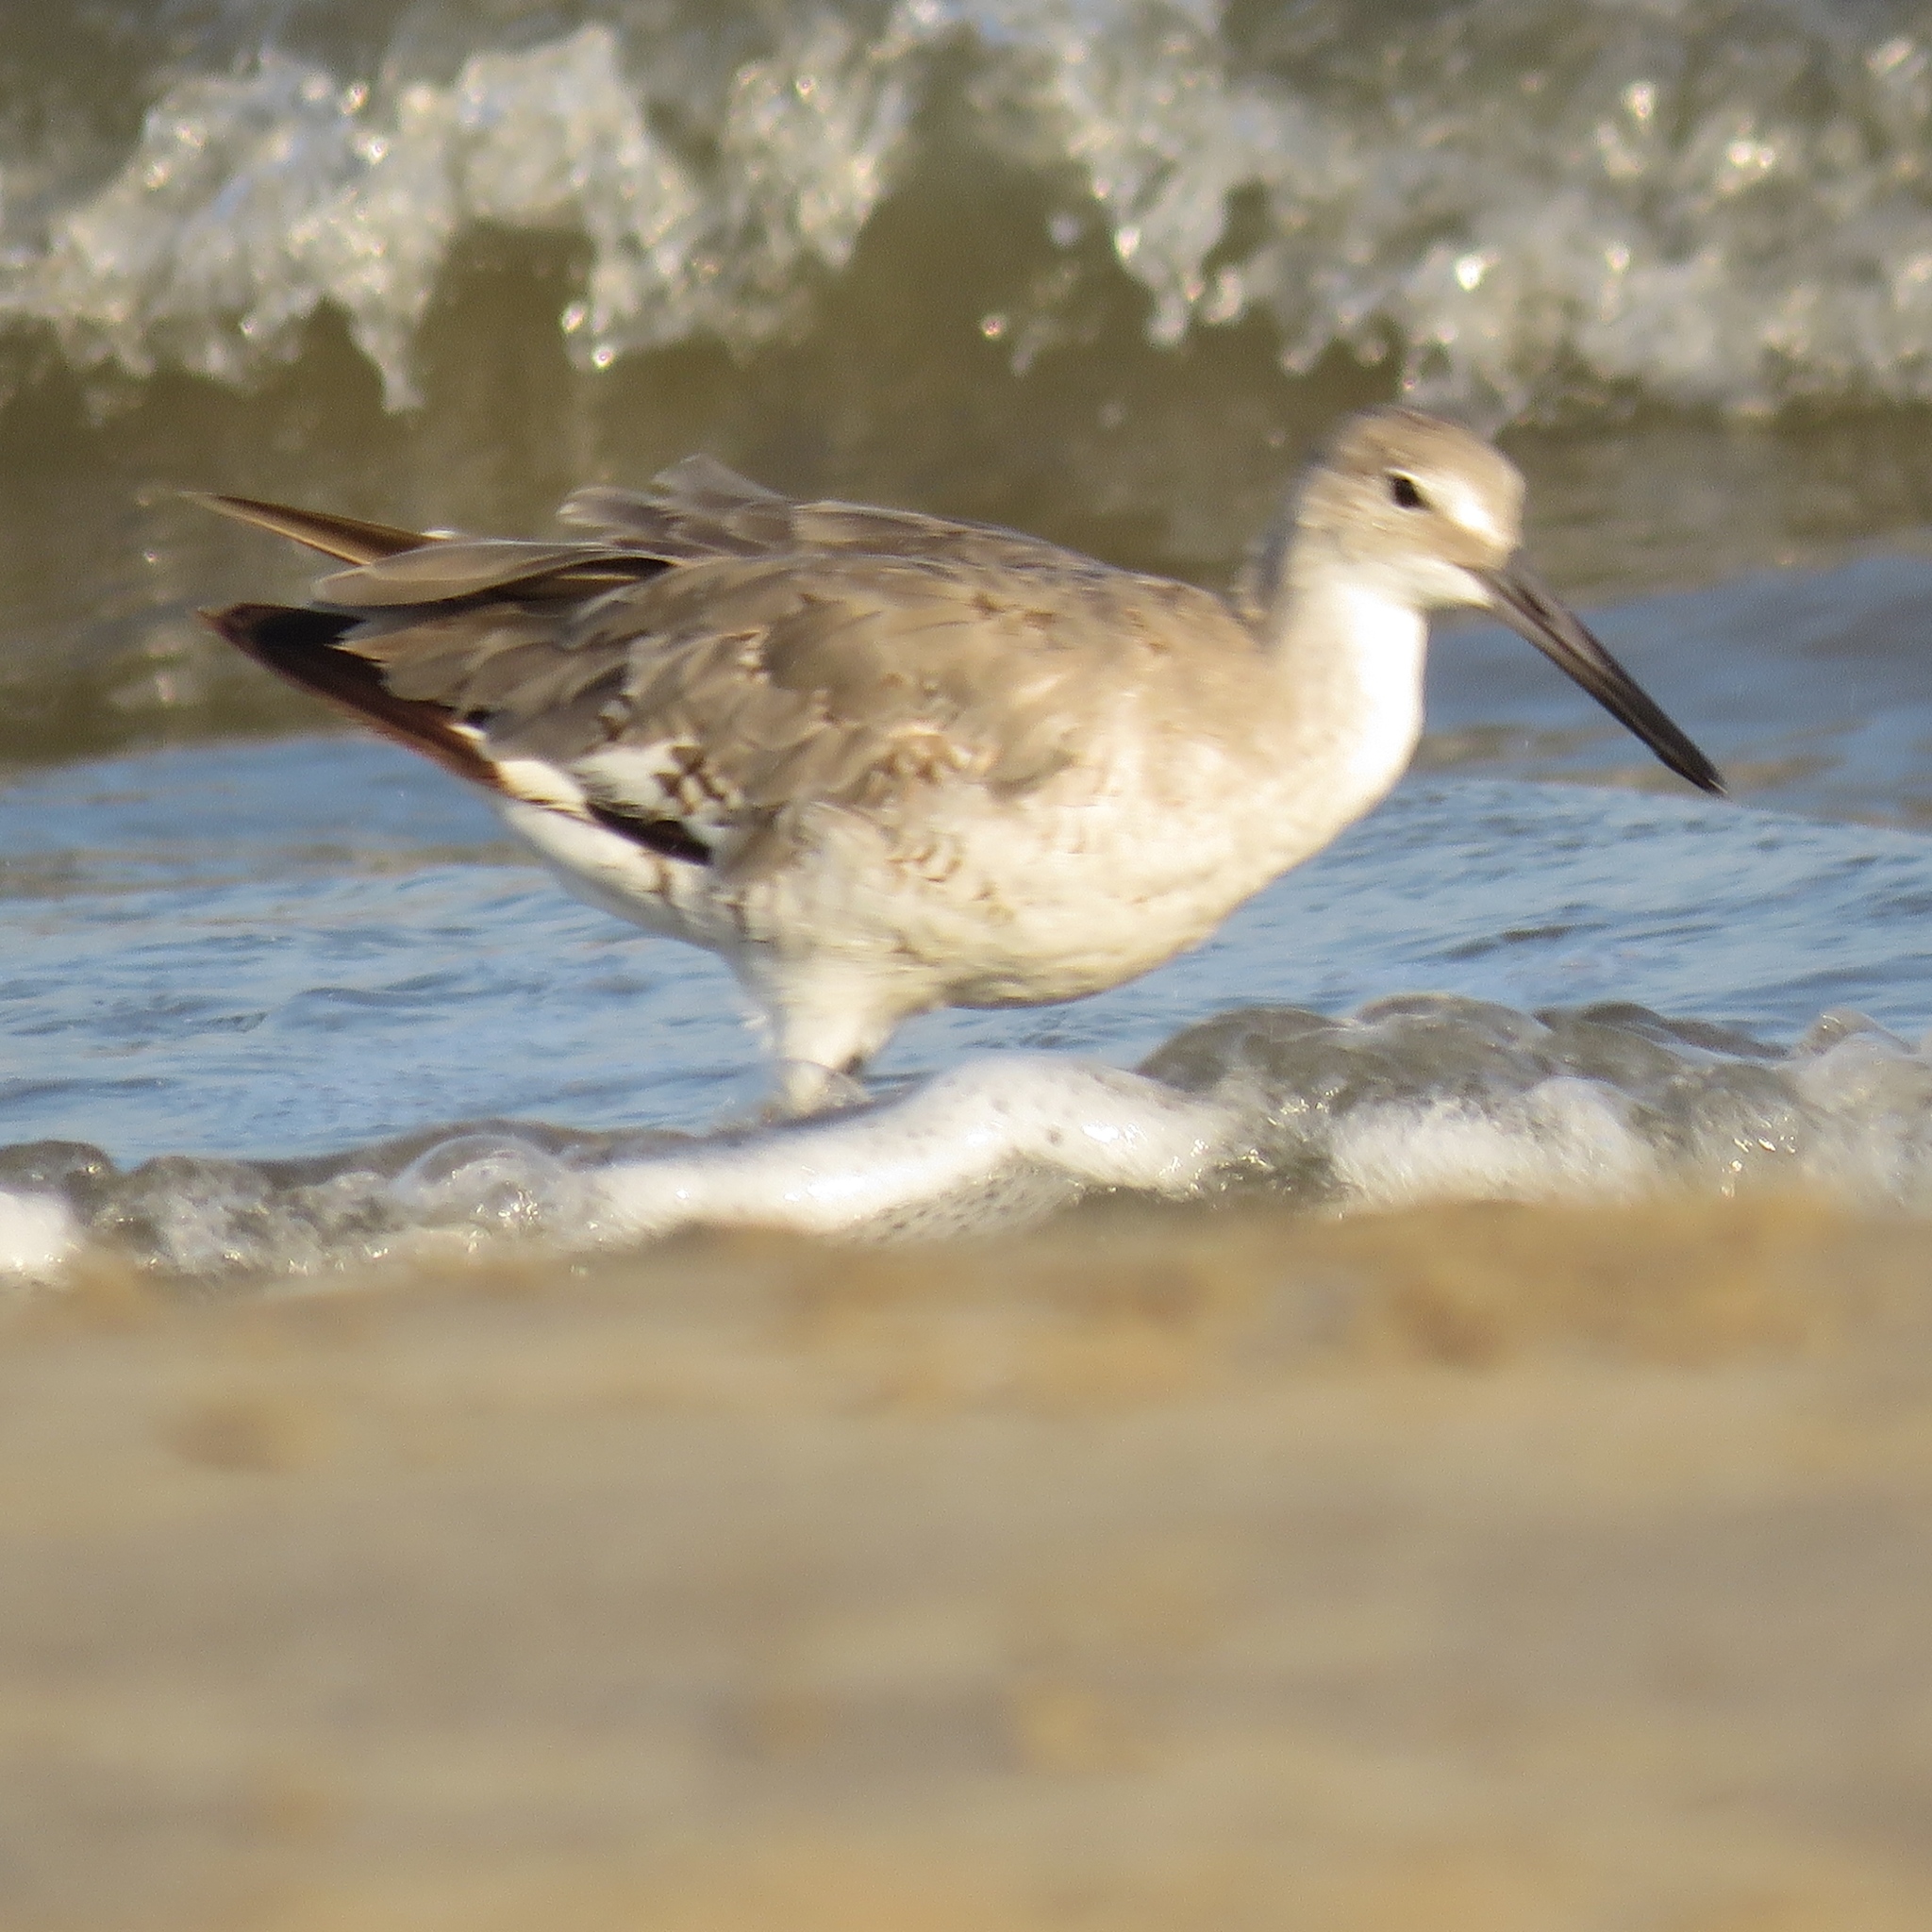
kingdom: Animalia
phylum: Chordata
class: Aves
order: Charadriiformes
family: Scolopacidae
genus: Tringa
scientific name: Tringa semipalmata
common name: Willet
